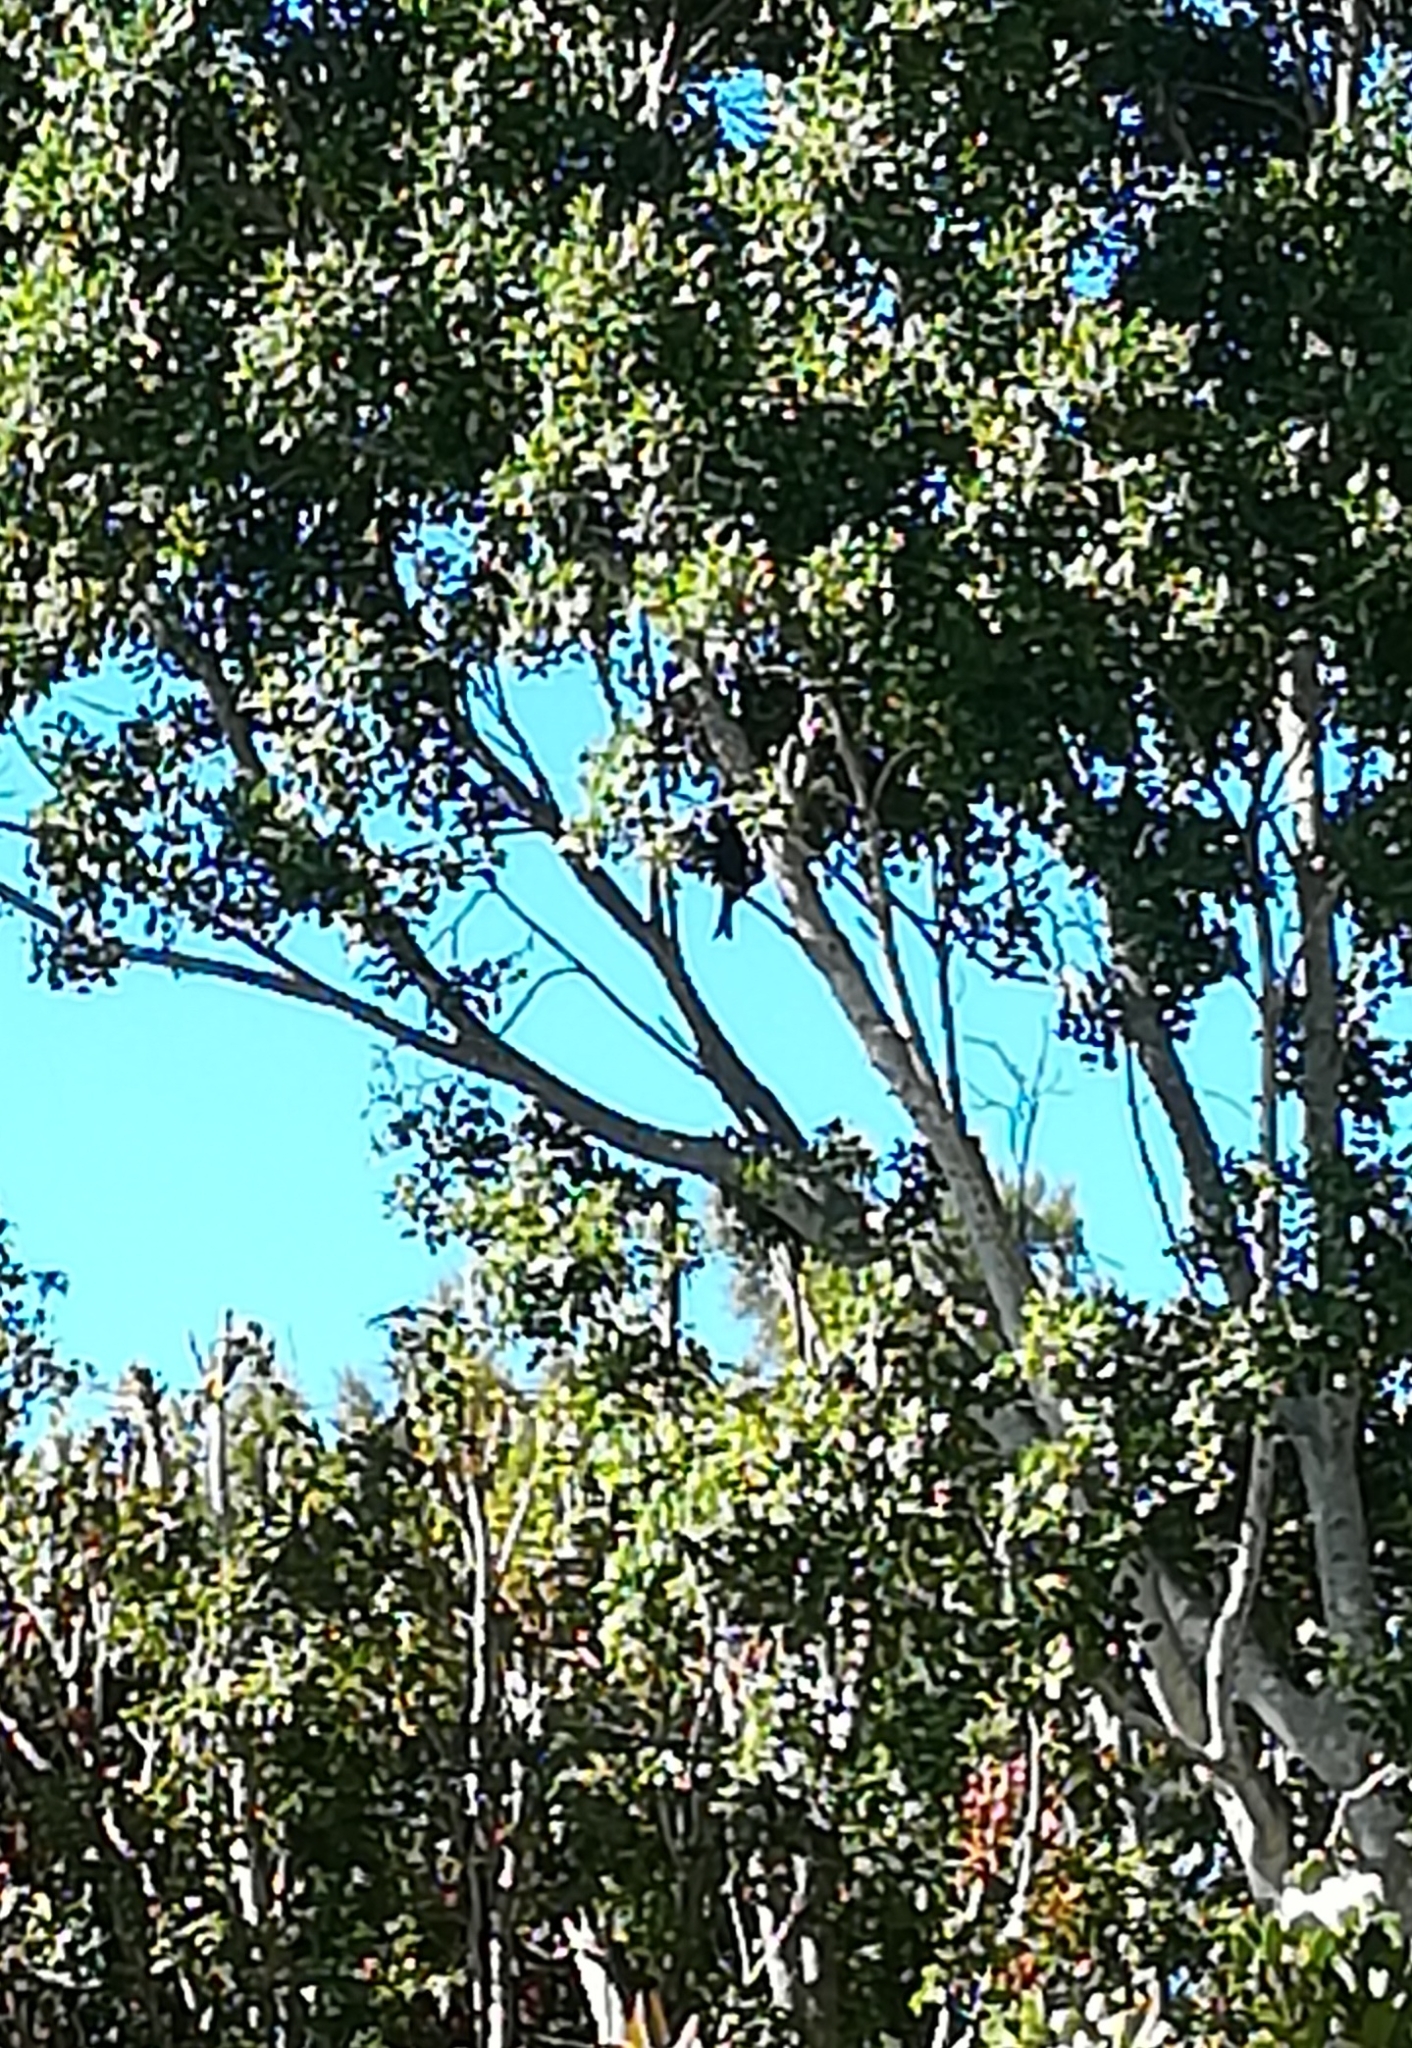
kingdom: Animalia
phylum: Chordata
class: Aves
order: Passeriformes
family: Dicruridae
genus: Dicrurus
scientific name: Dicrurus adsimilis
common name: Fork-tailed drongo
